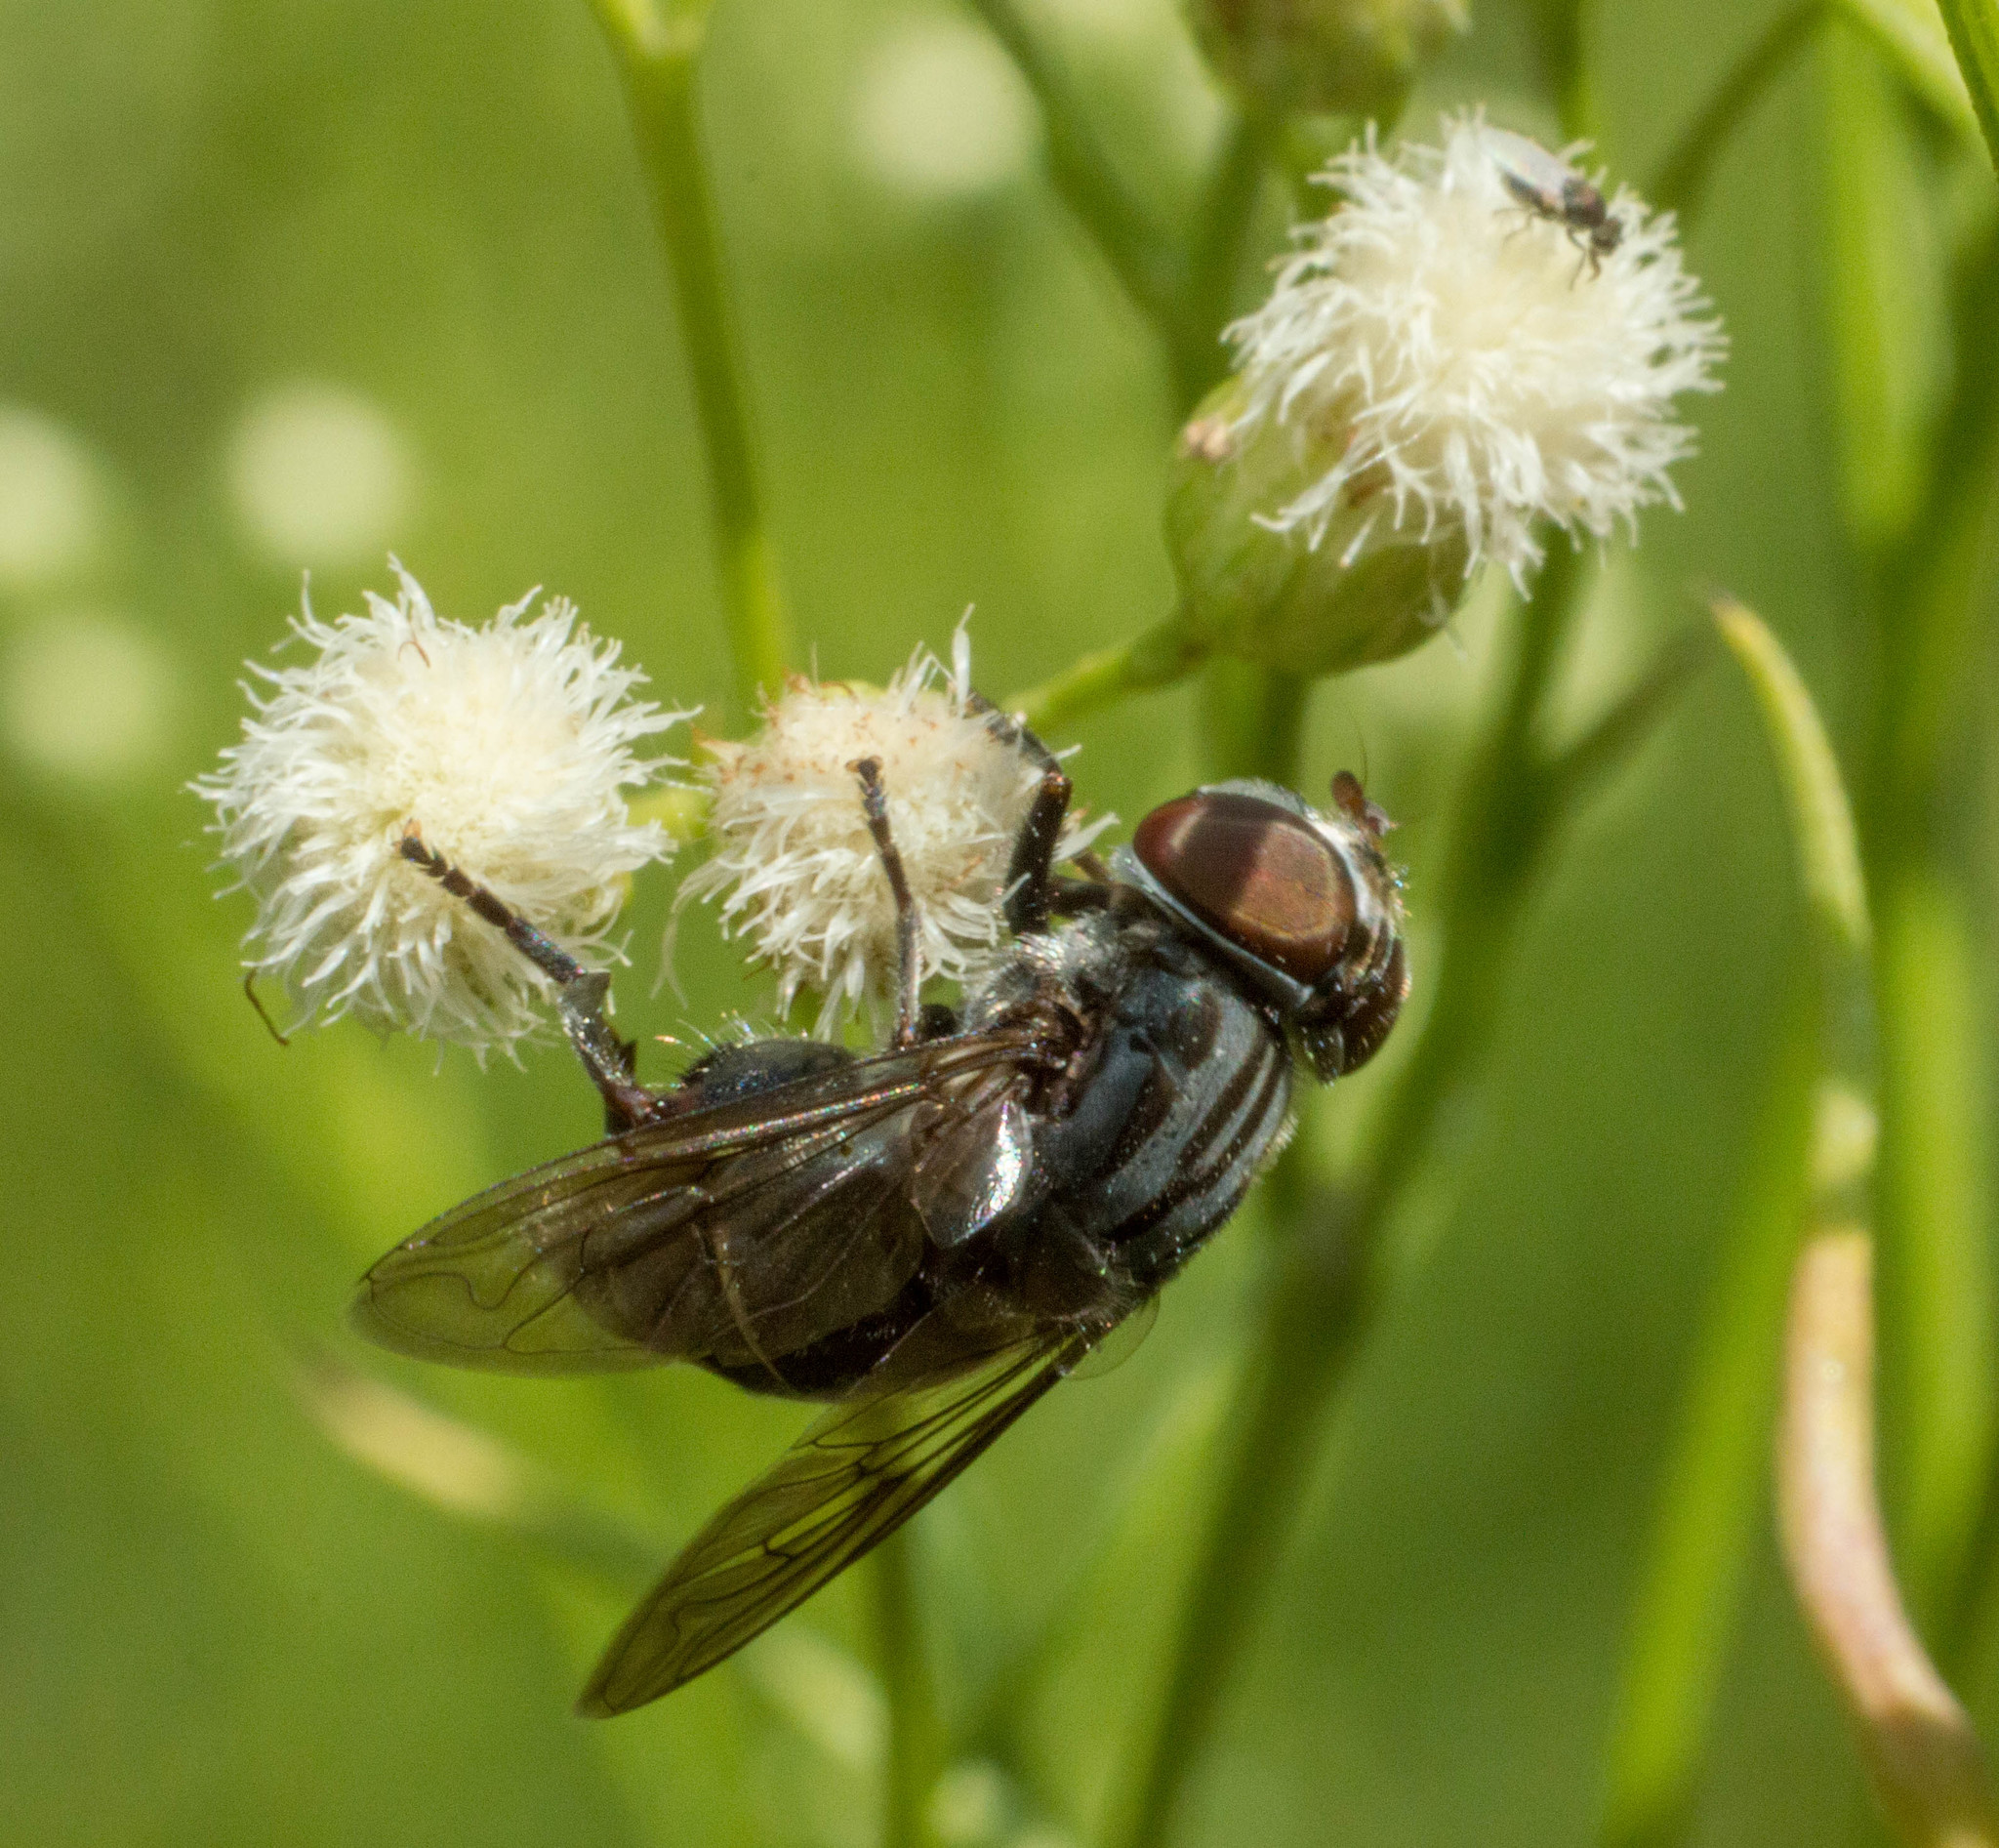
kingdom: Animalia
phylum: Arthropoda
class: Insecta
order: Diptera
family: Syrphidae
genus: Palpada
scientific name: Palpada furcata
